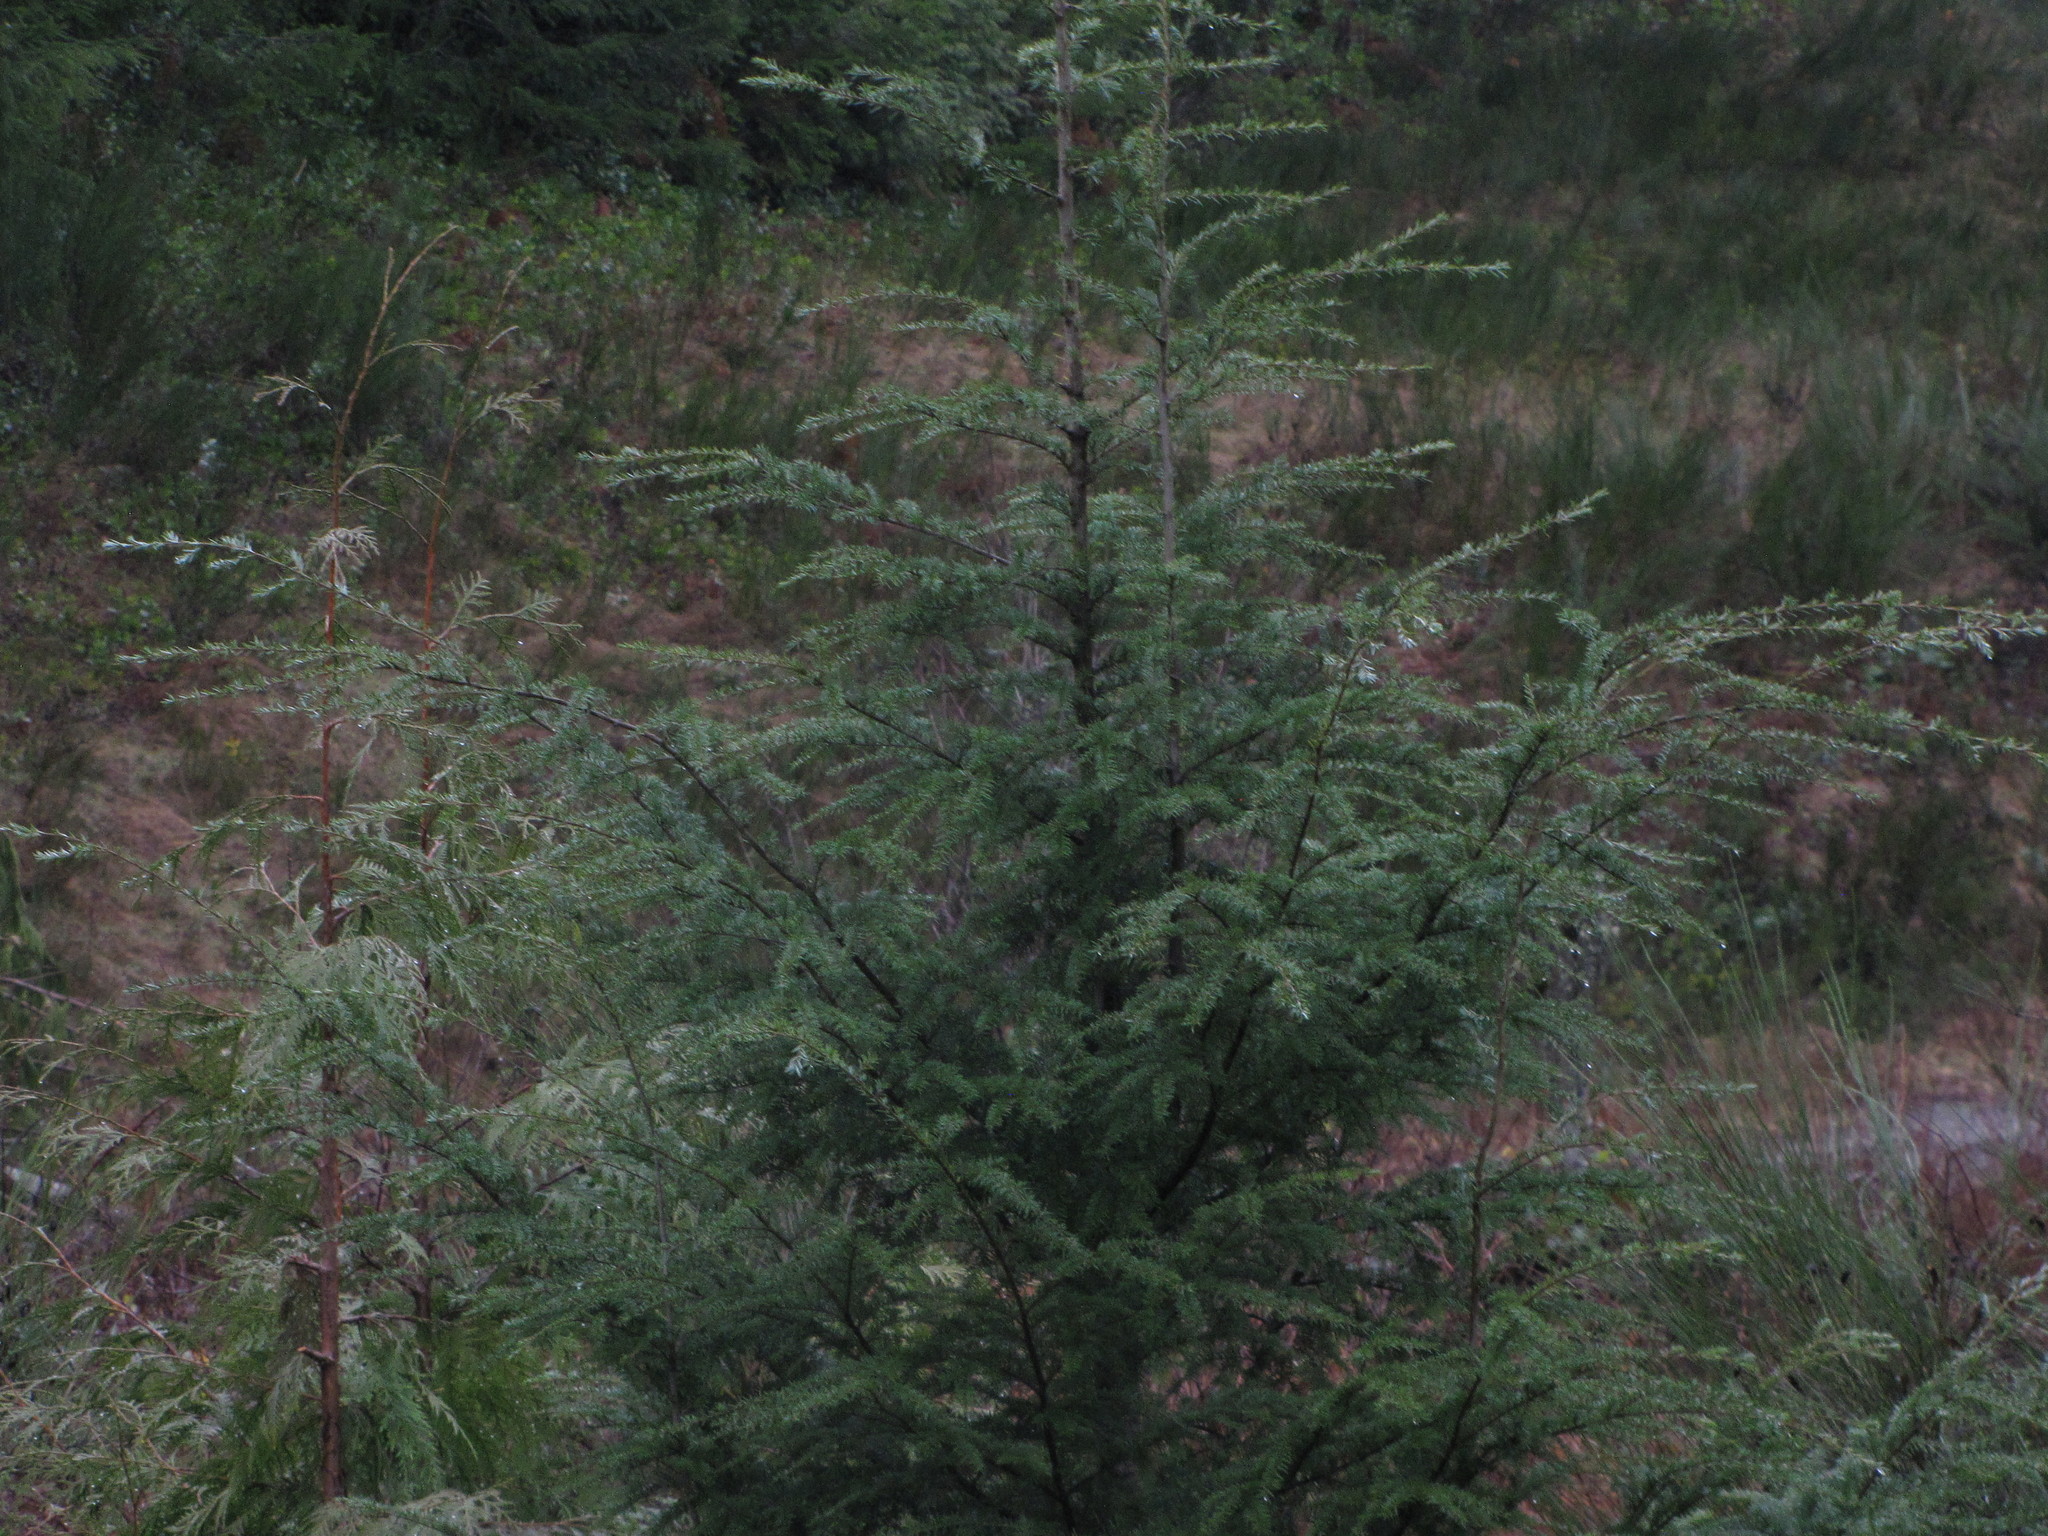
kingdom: Plantae
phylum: Tracheophyta
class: Pinopsida
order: Pinales
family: Pinaceae
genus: Tsuga
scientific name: Tsuga heterophylla
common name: Western hemlock
